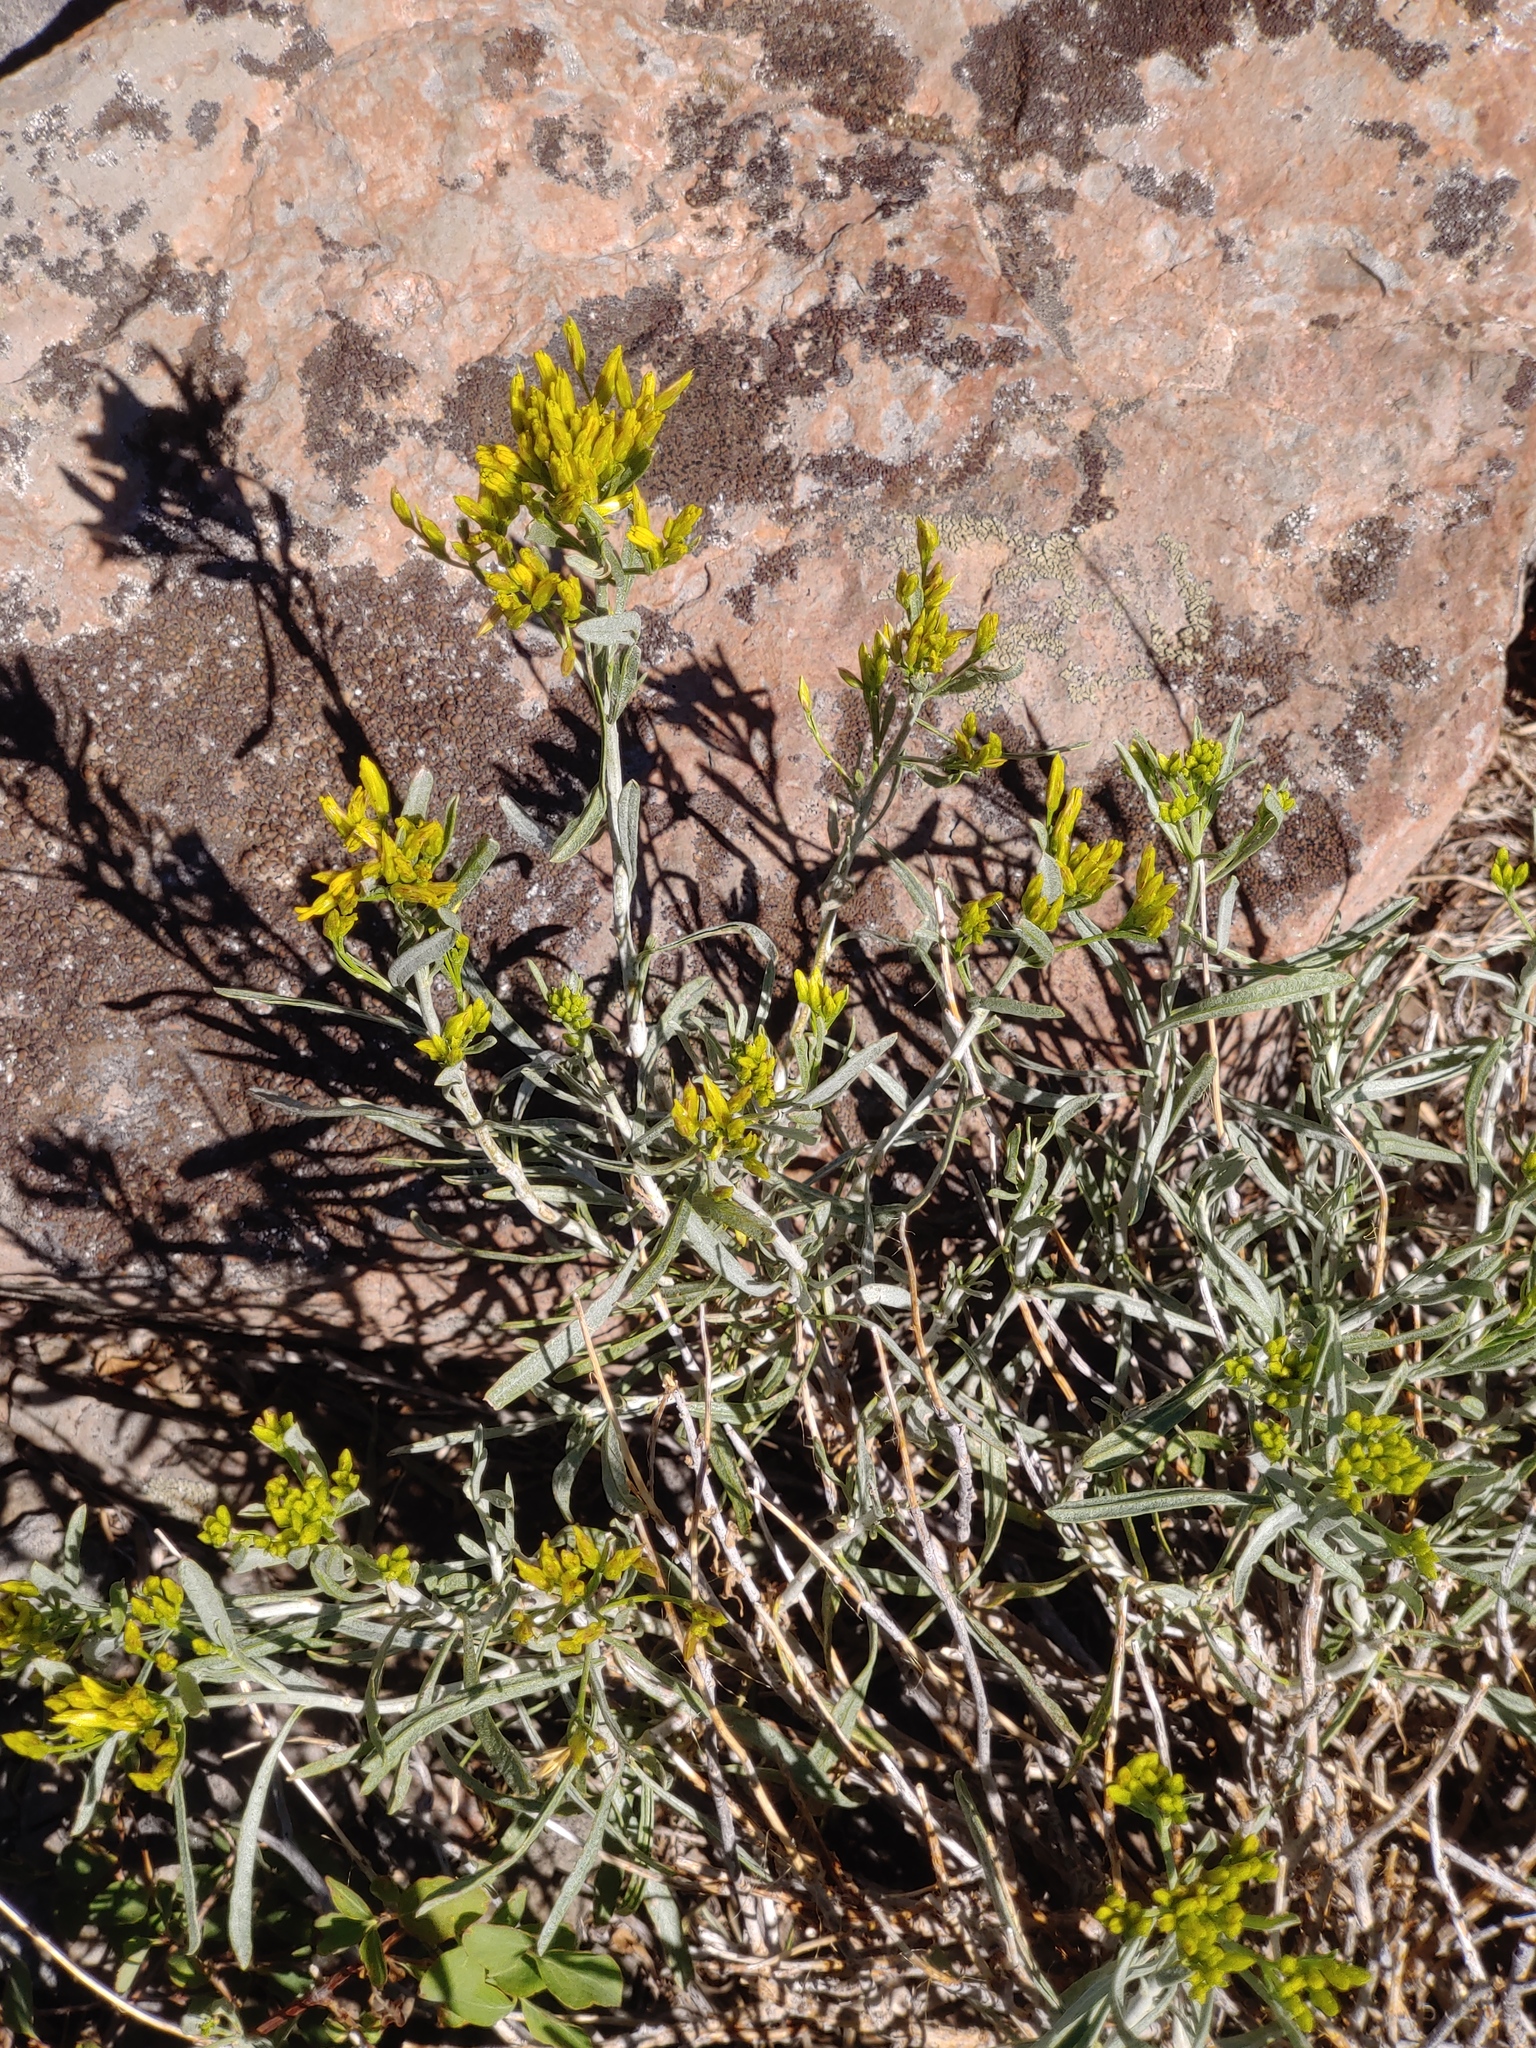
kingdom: Plantae
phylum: Tracheophyta
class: Magnoliopsida
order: Asterales
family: Asteraceae
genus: Chrysothamnus
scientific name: Chrysothamnus viscidiflorus
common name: Yellow rabbitbrush
